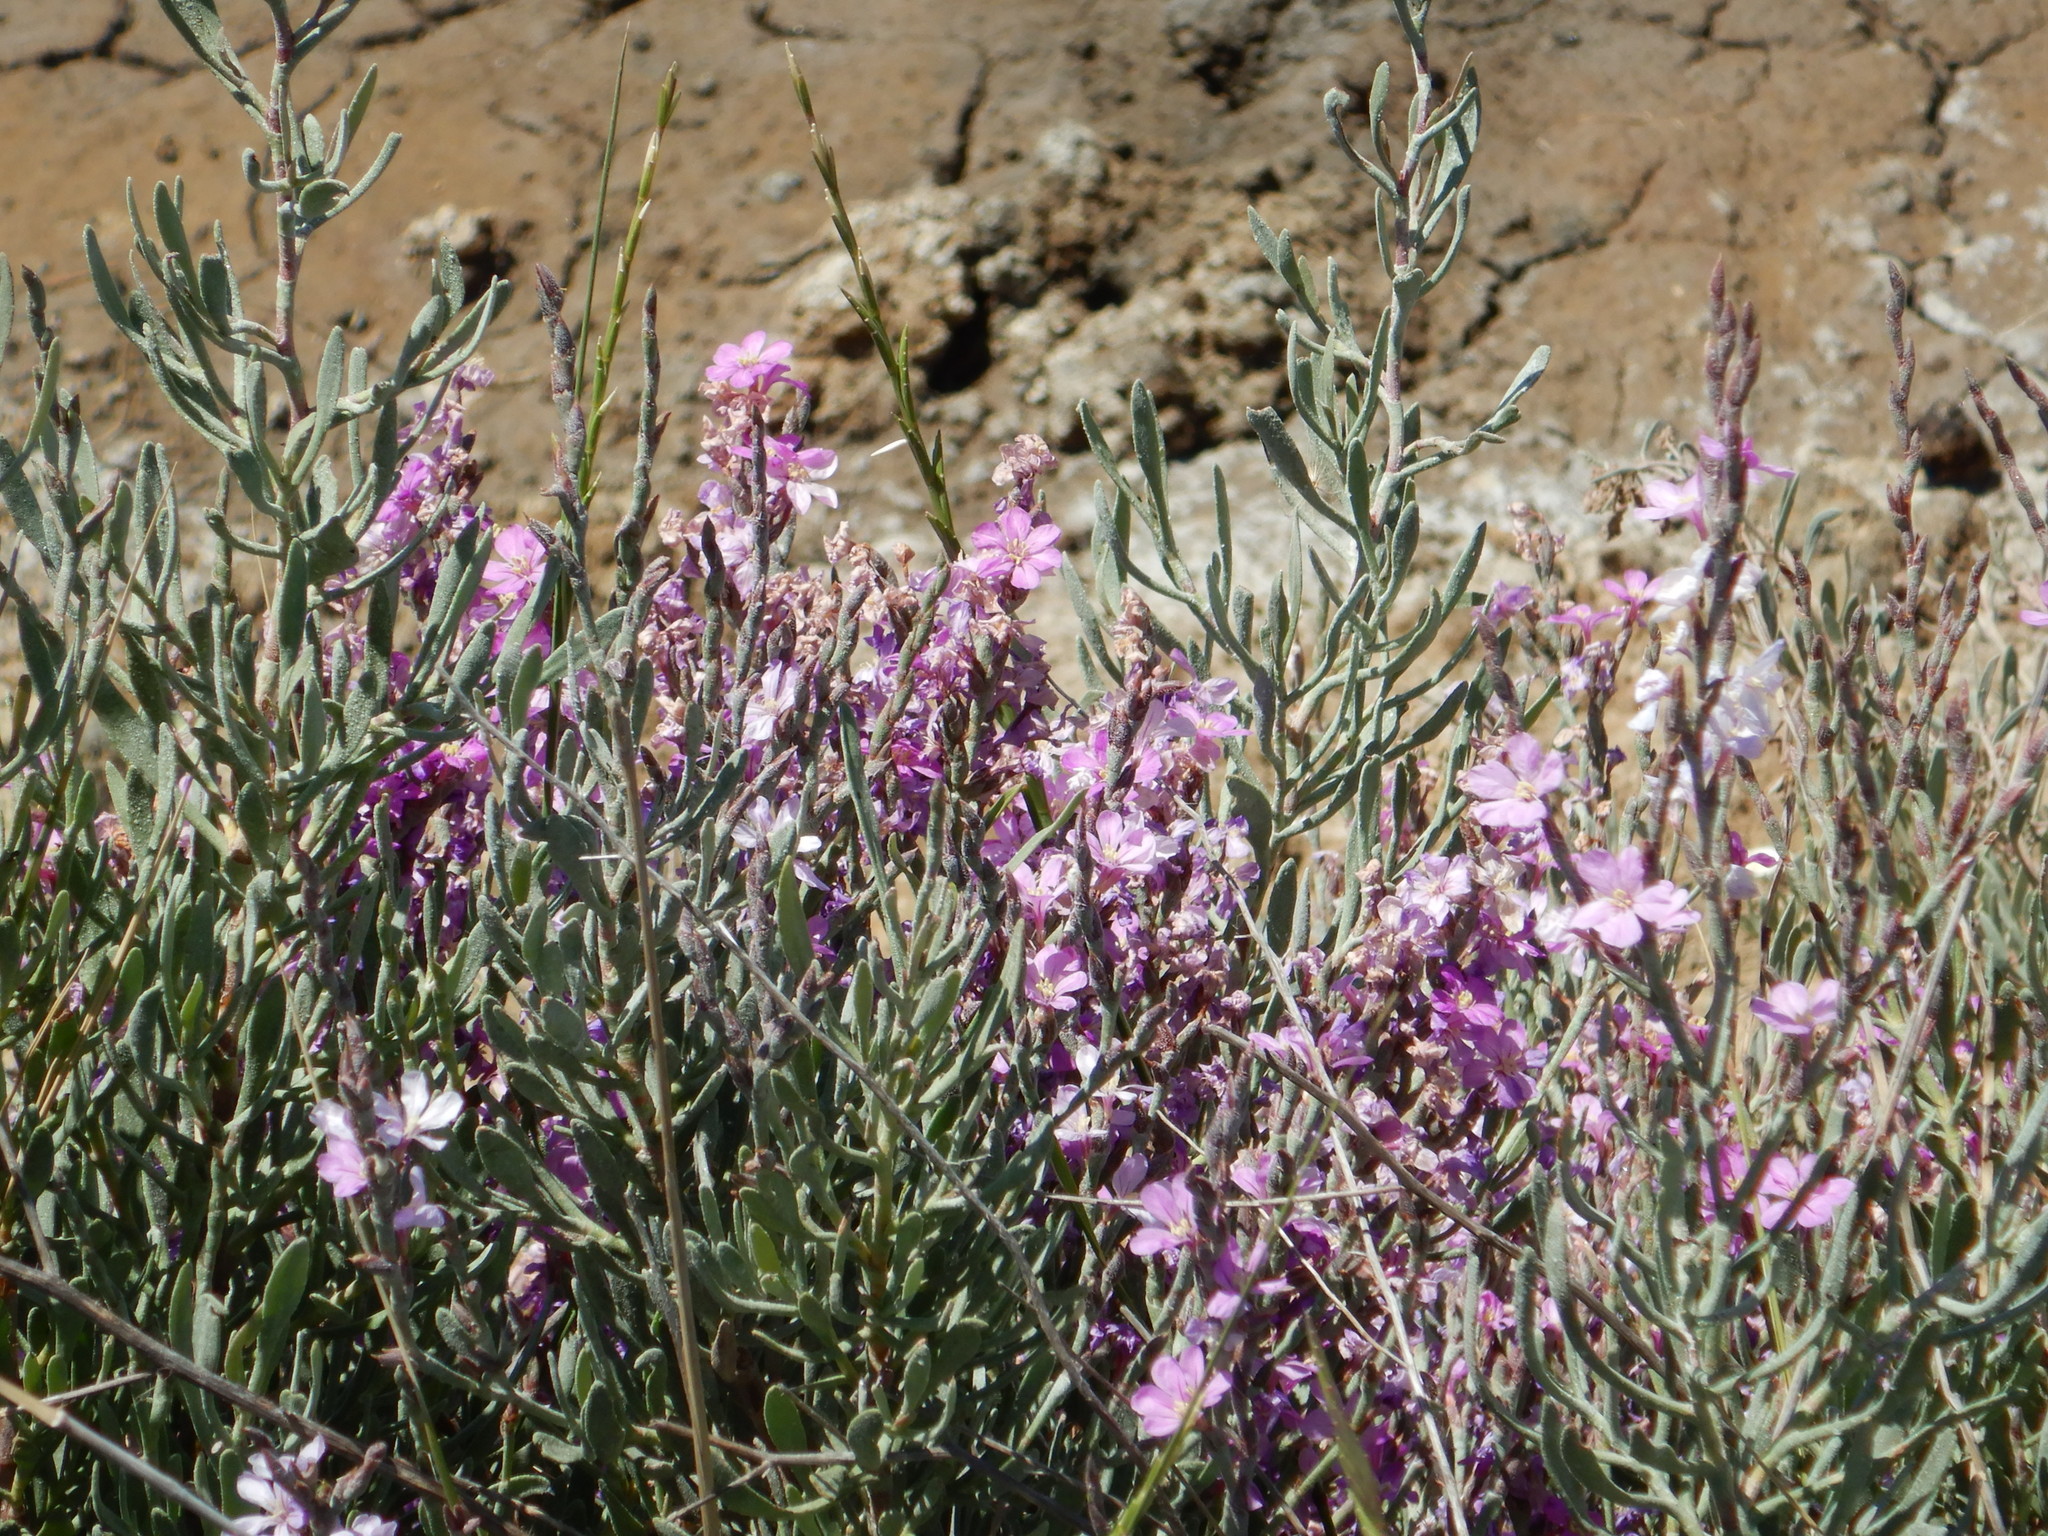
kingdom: Plantae
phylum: Tracheophyta
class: Magnoliopsida
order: Caryophyllales
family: Plumbaginaceae
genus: Limoniastrum
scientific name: Limoniastrum monopetalum
